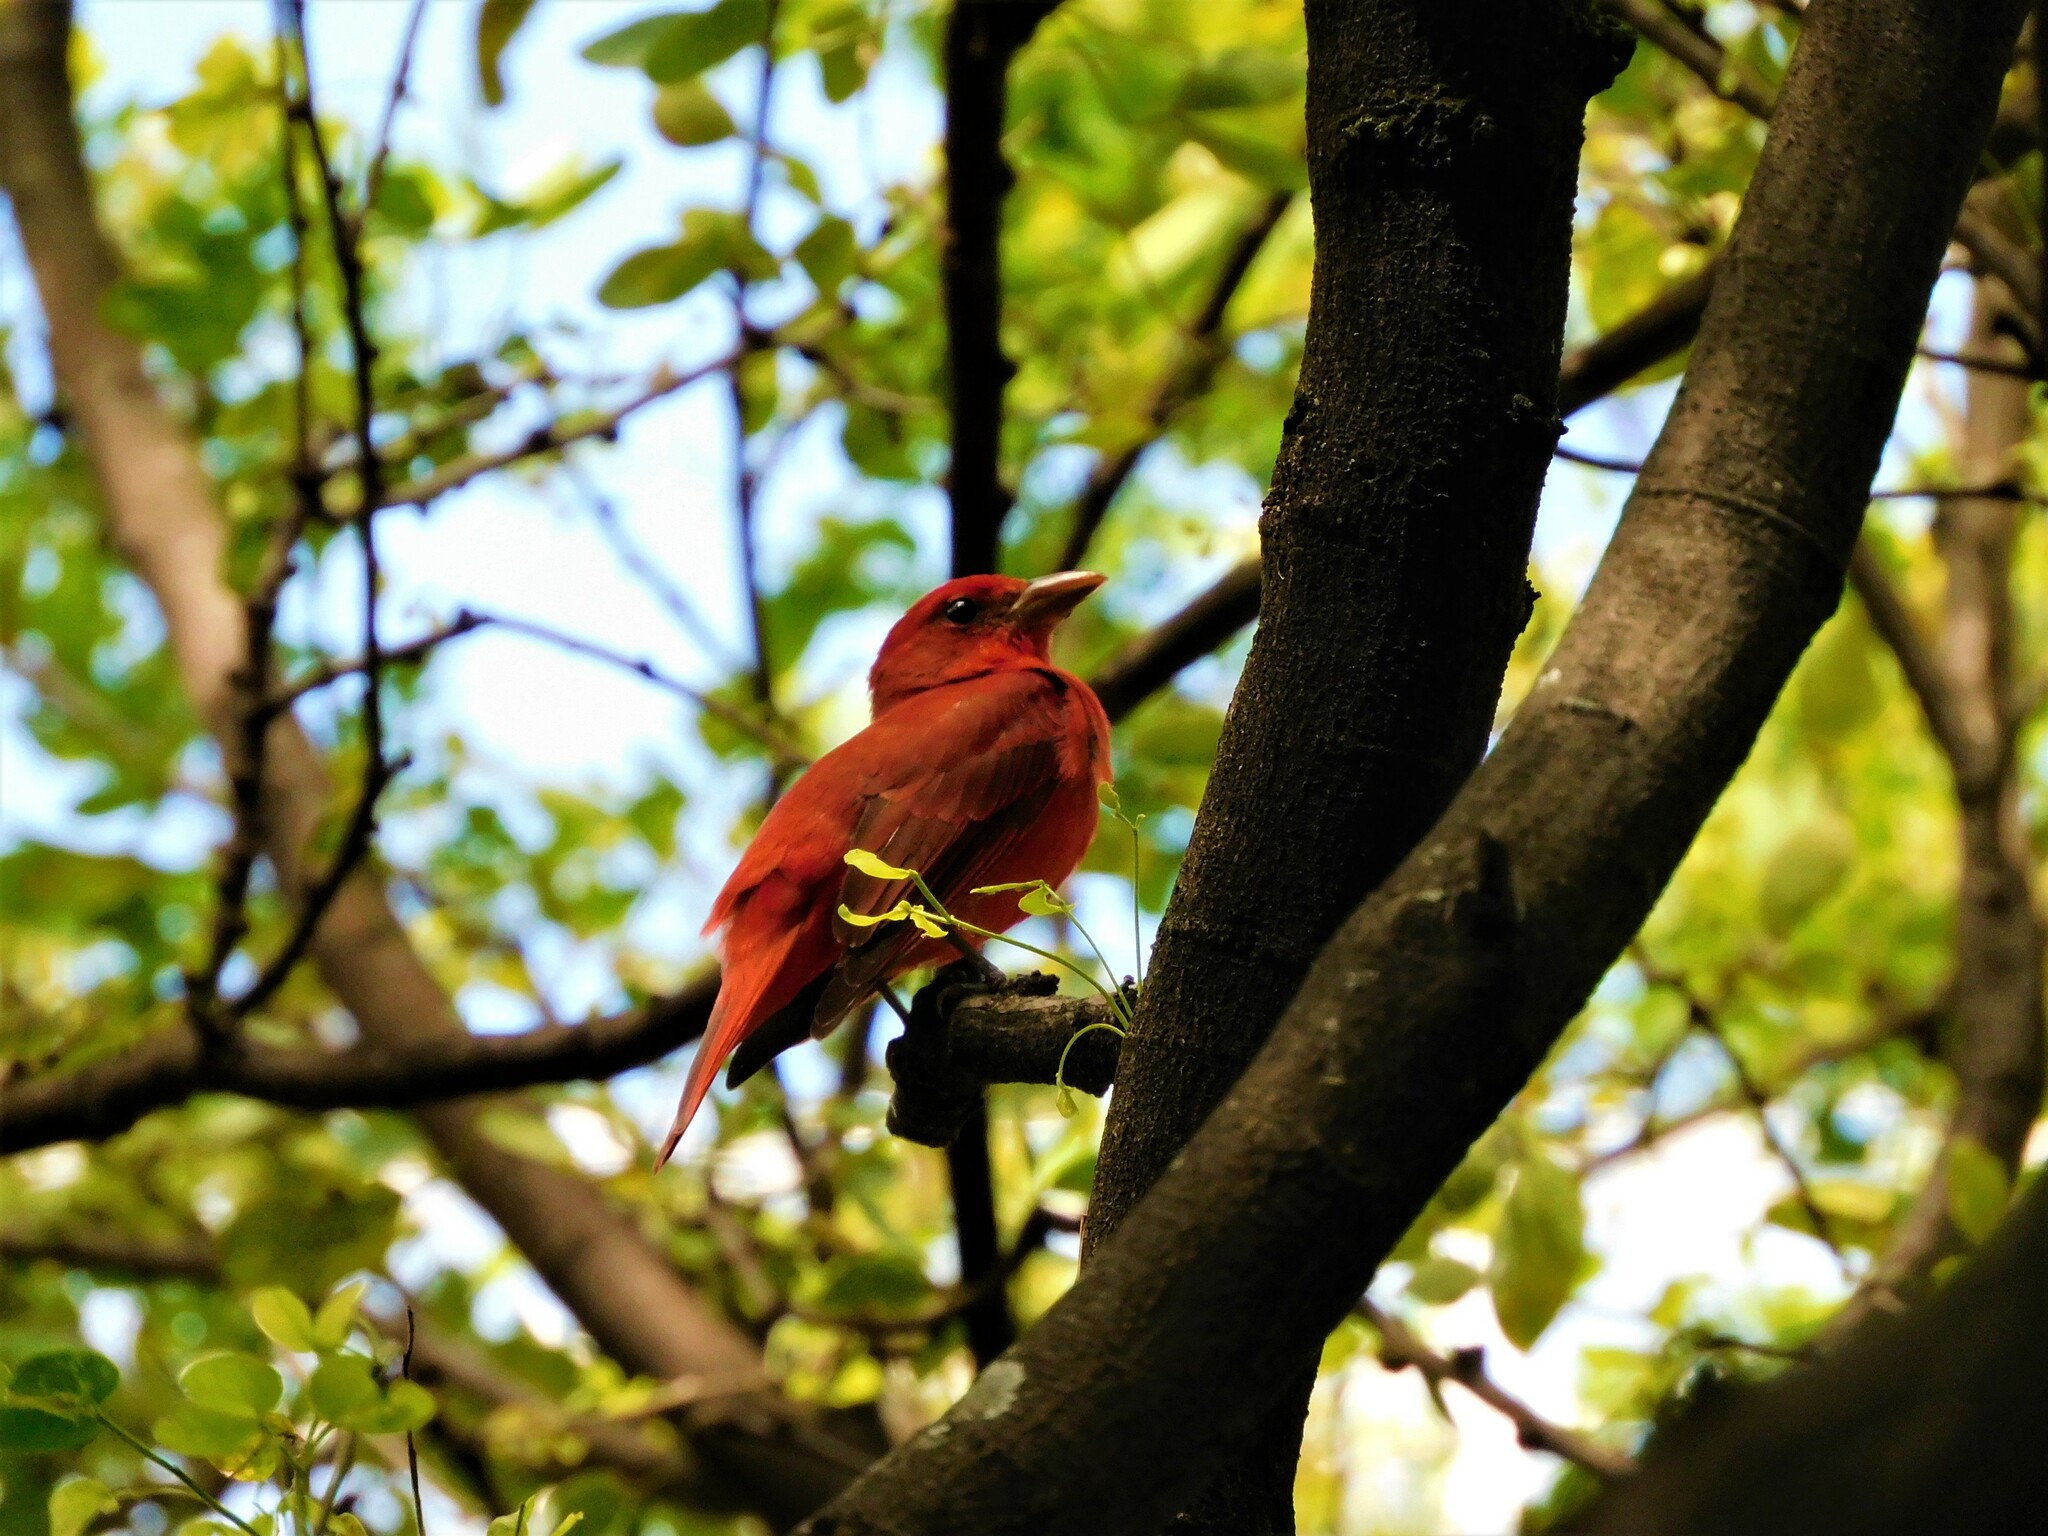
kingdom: Animalia
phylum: Chordata
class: Aves
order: Passeriformes
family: Cardinalidae
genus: Piranga
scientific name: Piranga rubra
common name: Summer tanager
